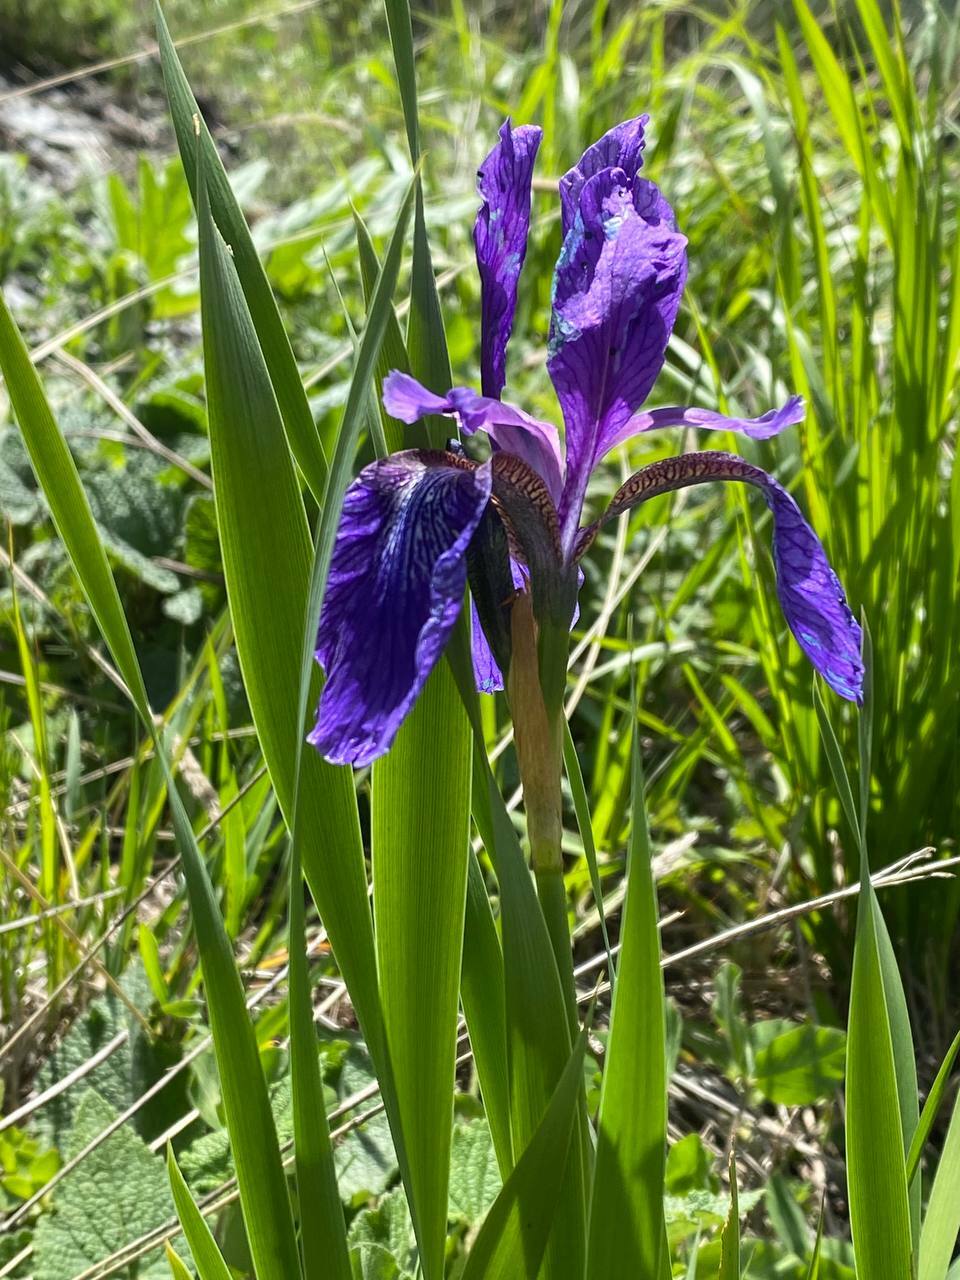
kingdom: Plantae
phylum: Tracheophyta
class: Liliopsida
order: Asparagales
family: Iridaceae
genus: Iris
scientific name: Iris sibirica
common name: Siberian iris
